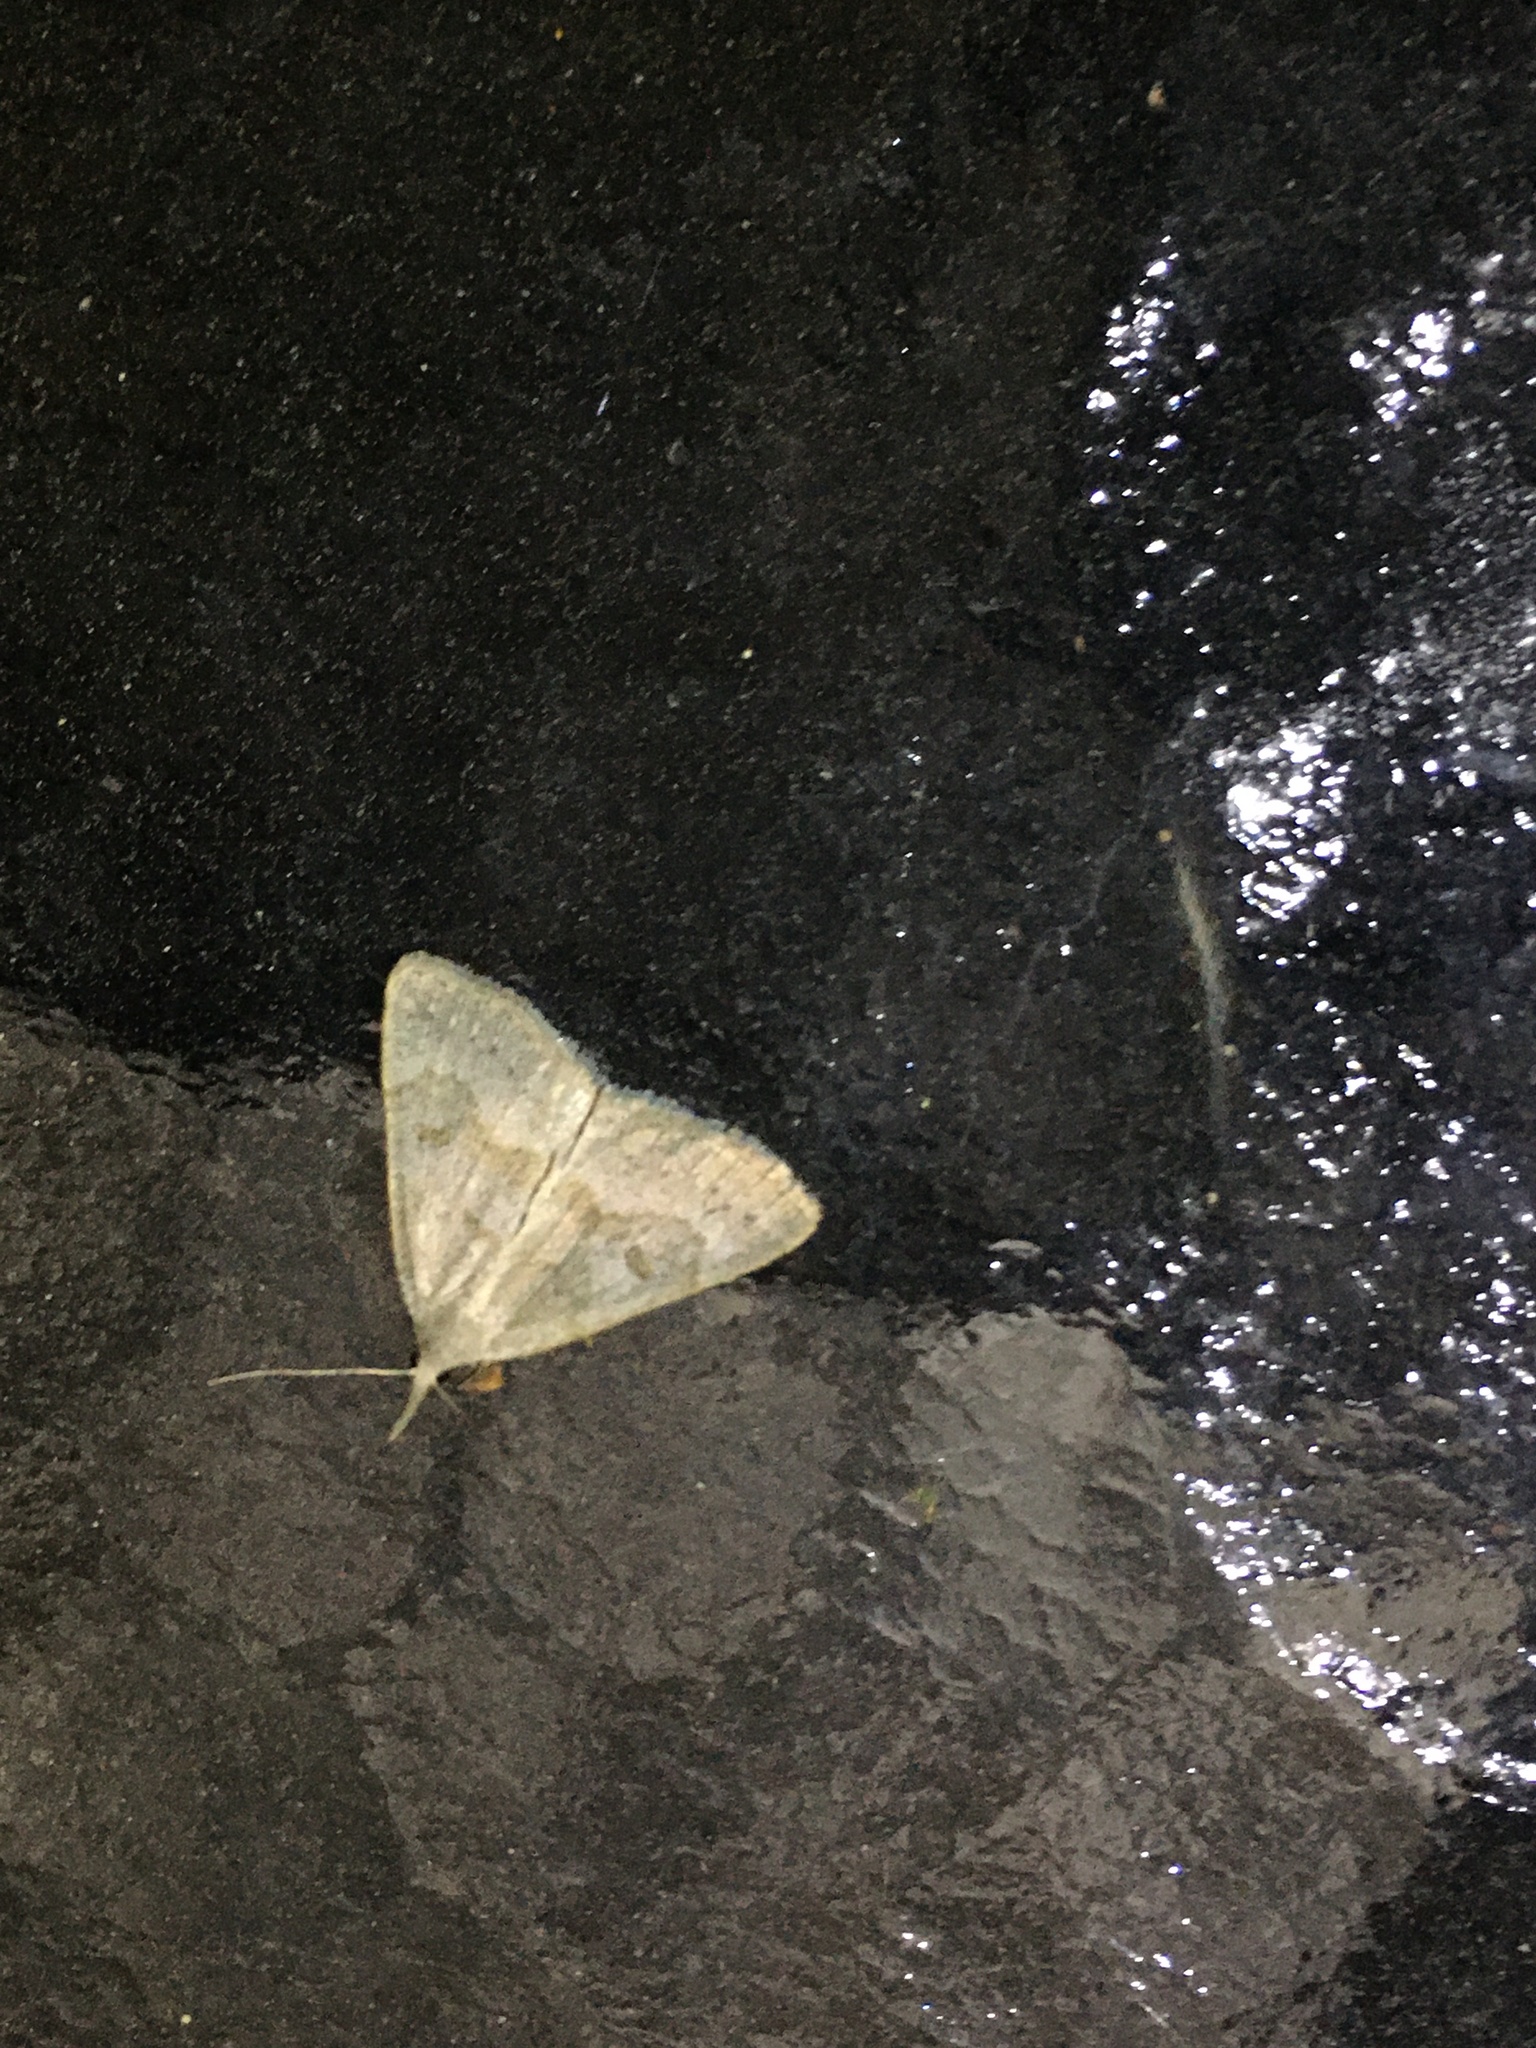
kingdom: Animalia
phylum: Arthropoda
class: Insecta
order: Lepidoptera
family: Erebidae
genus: Macrochilo
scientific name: Macrochilo morbidalis
